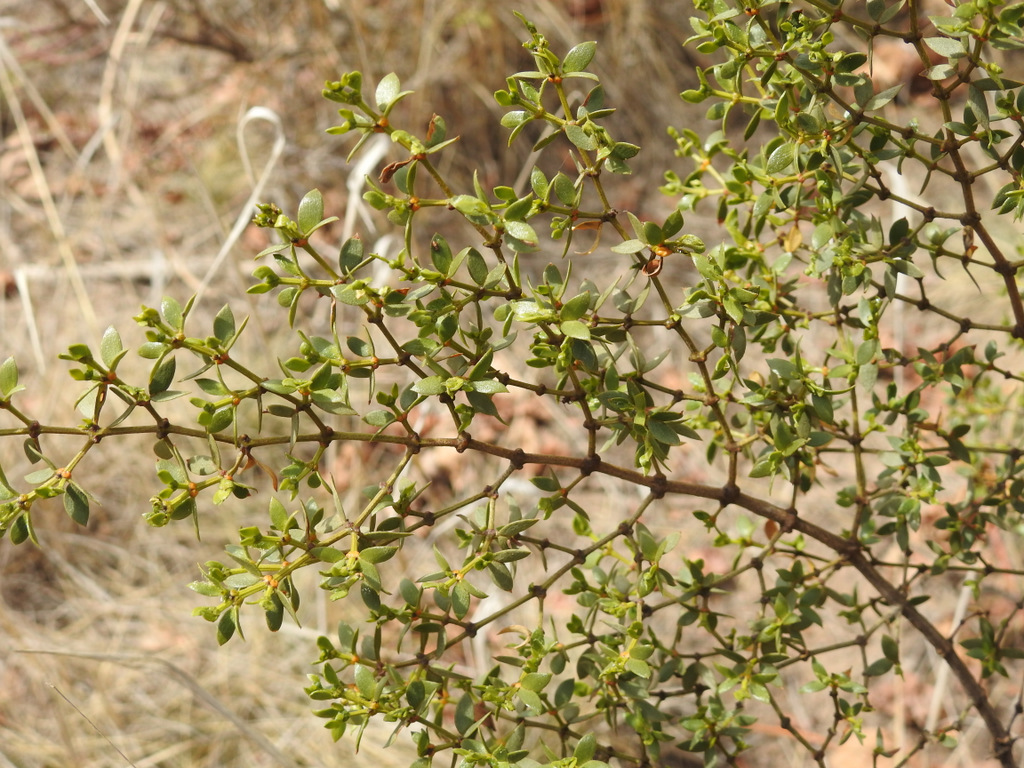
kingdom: Plantae
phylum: Tracheophyta
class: Magnoliopsida
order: Zygophyllales
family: Zygophyllaceae
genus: Larrea
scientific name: Larrea divaricata
